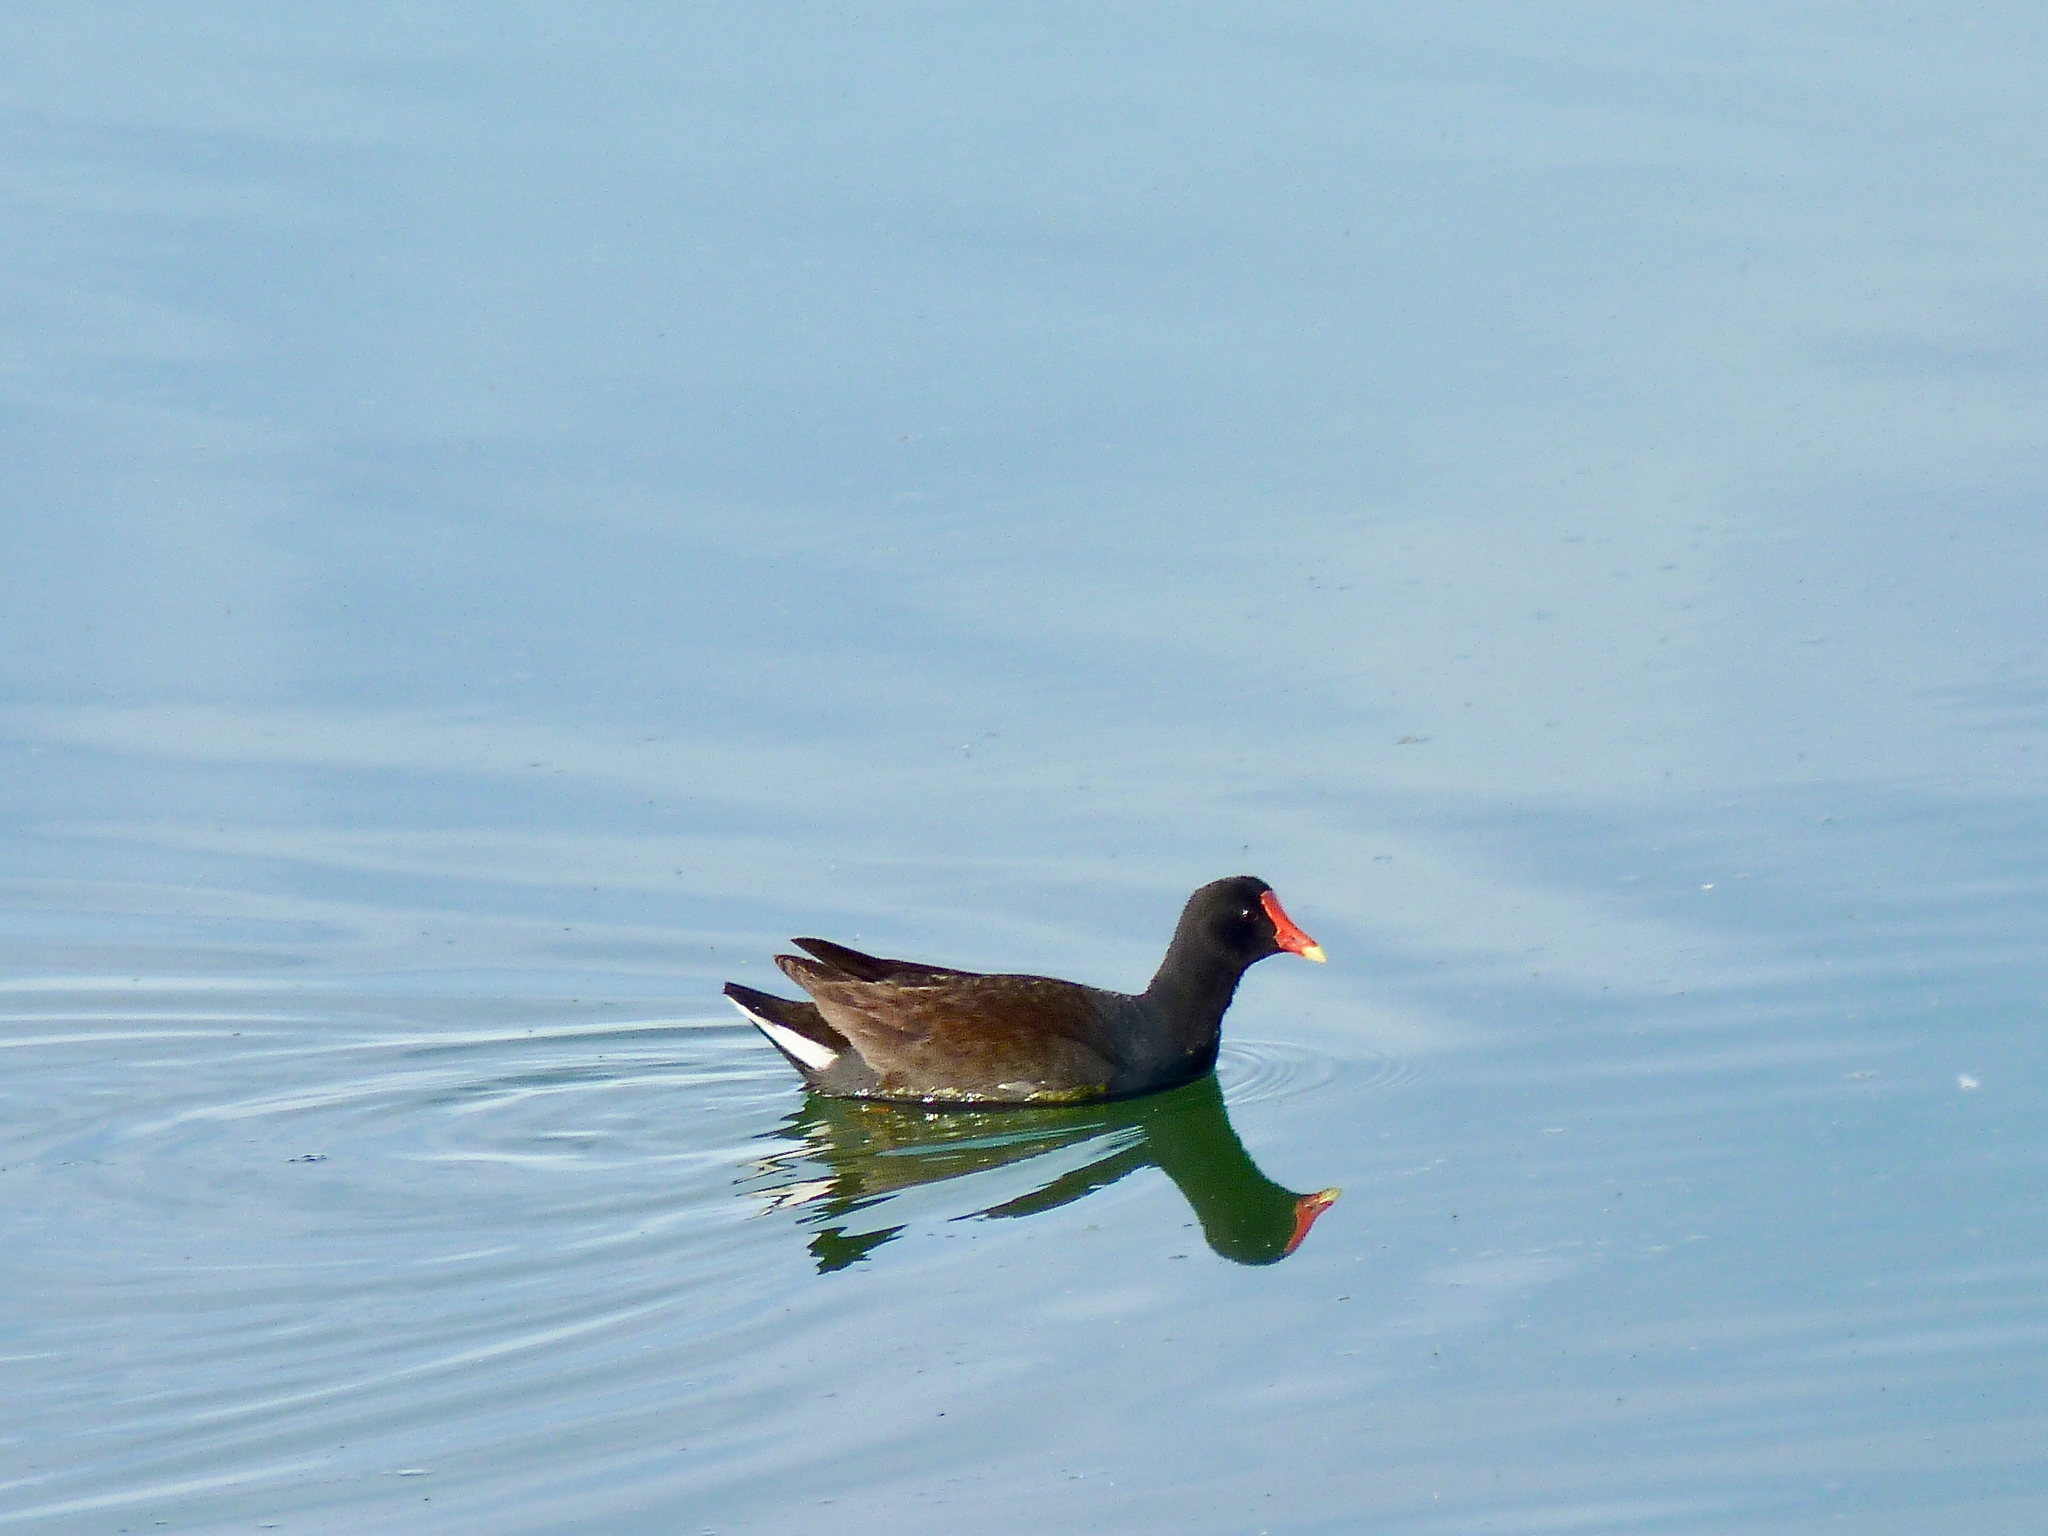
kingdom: Animalia
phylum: Chordata
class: Aves
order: Gruiformes
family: Rallidae
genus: Gallinula
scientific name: Gallinula chloropus
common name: Common moorhen
